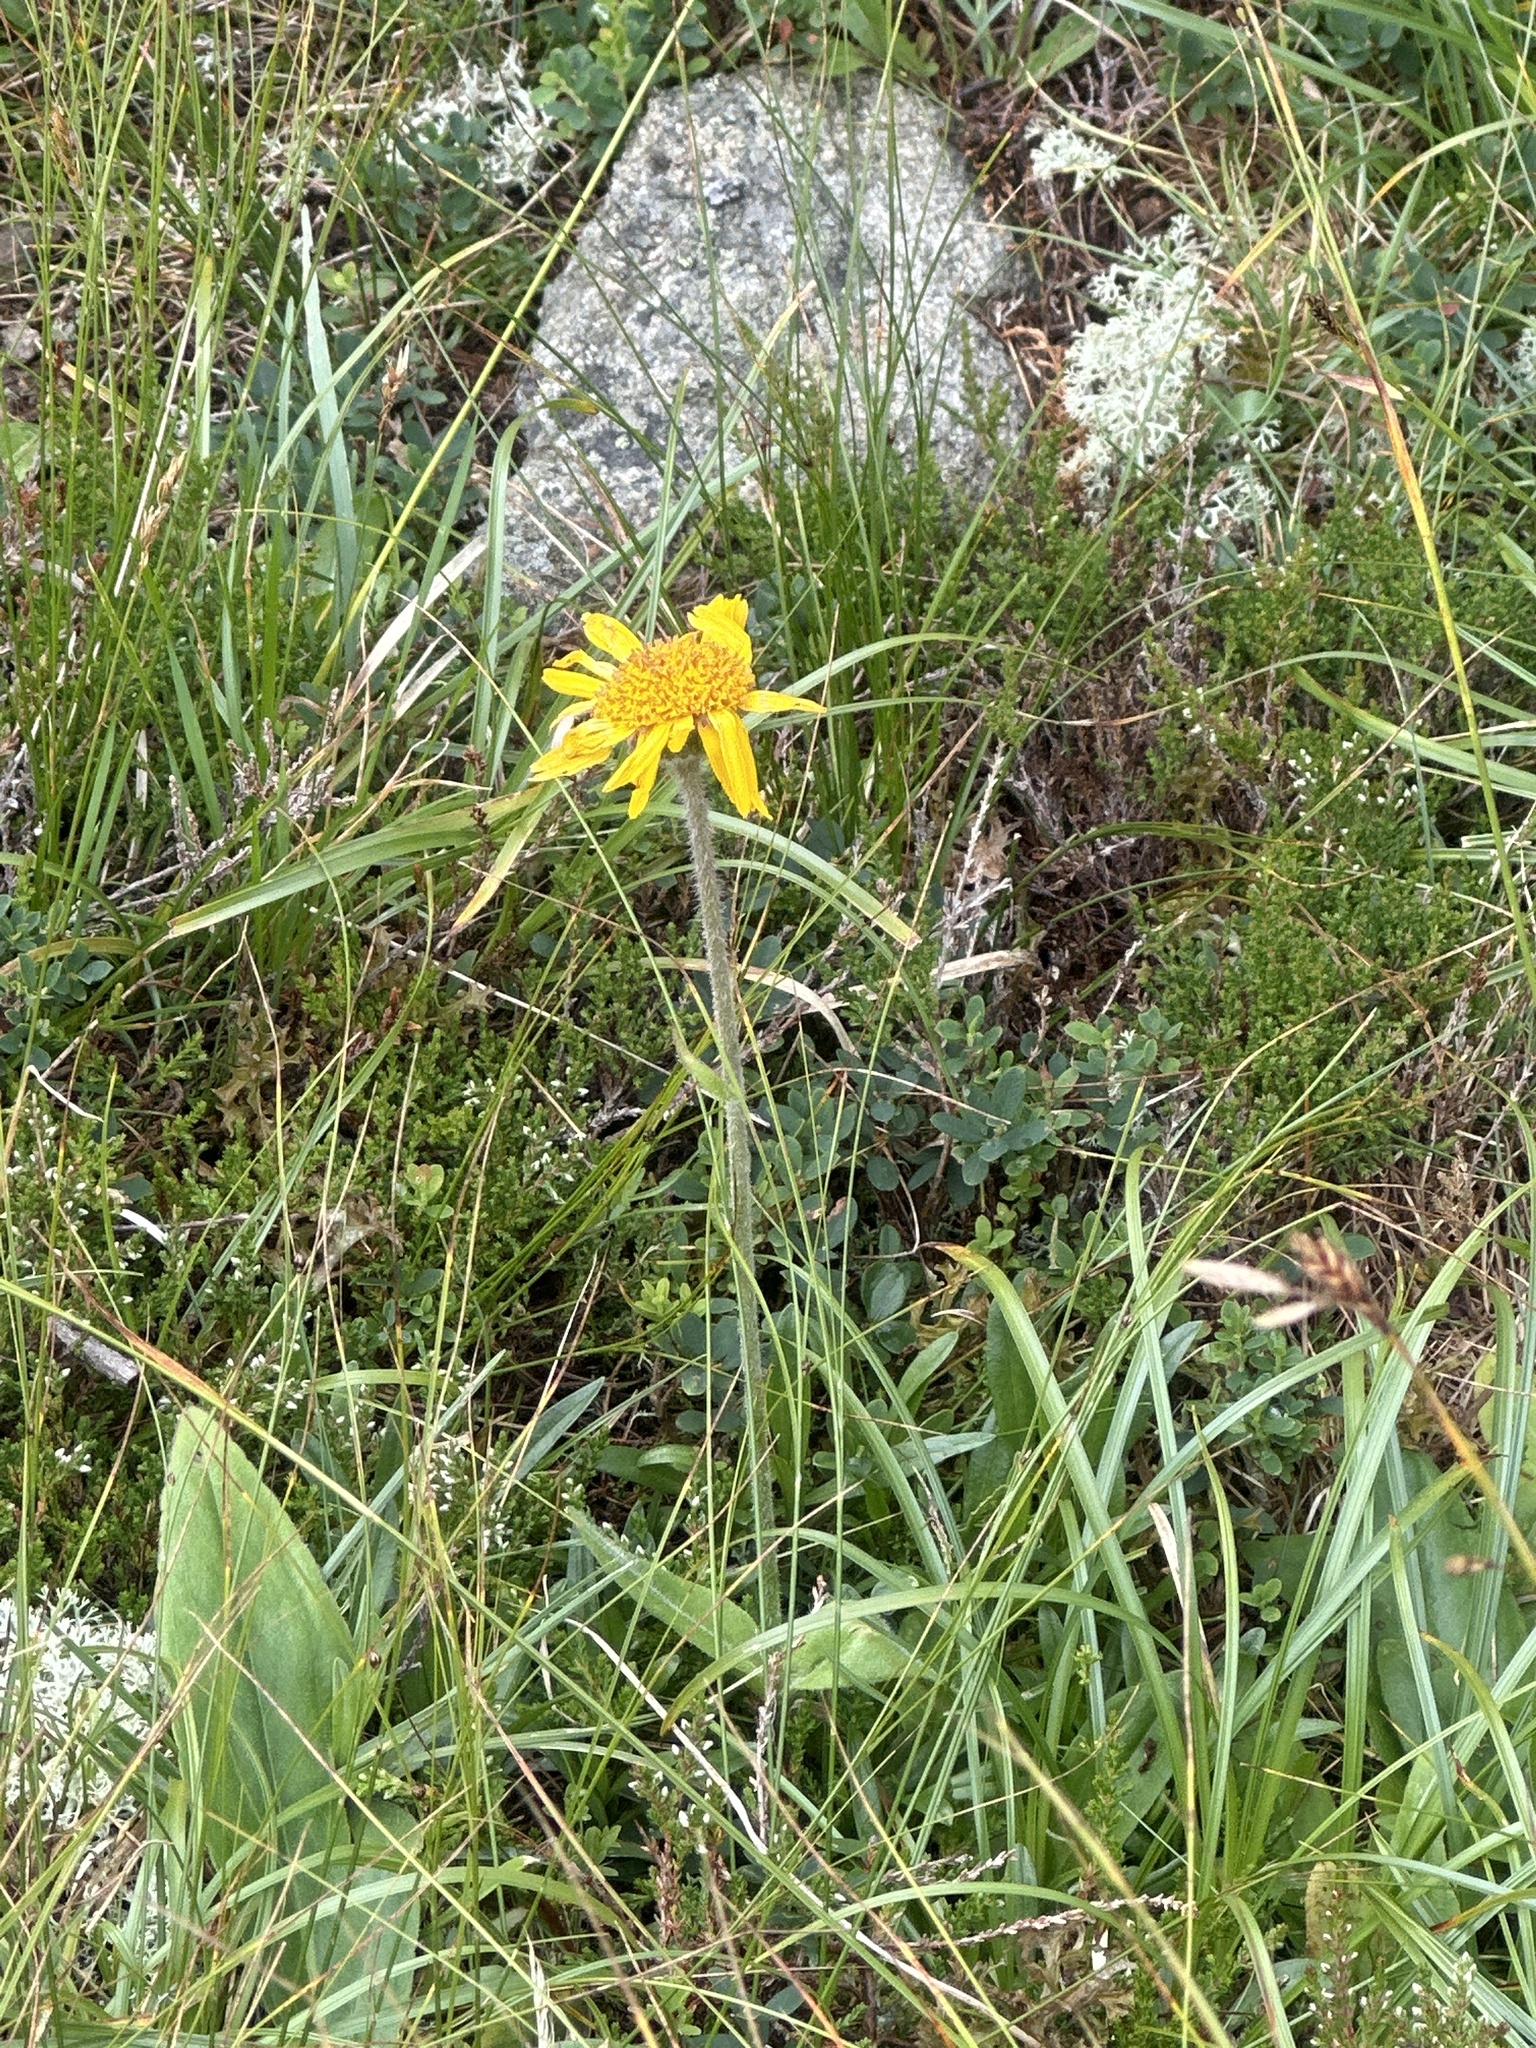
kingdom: Plantae
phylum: Tracheophyta
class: Magnoliopsida
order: Asterales
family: Asteraceae
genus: Arnica
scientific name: Arnica montana
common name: Leopard's bane
